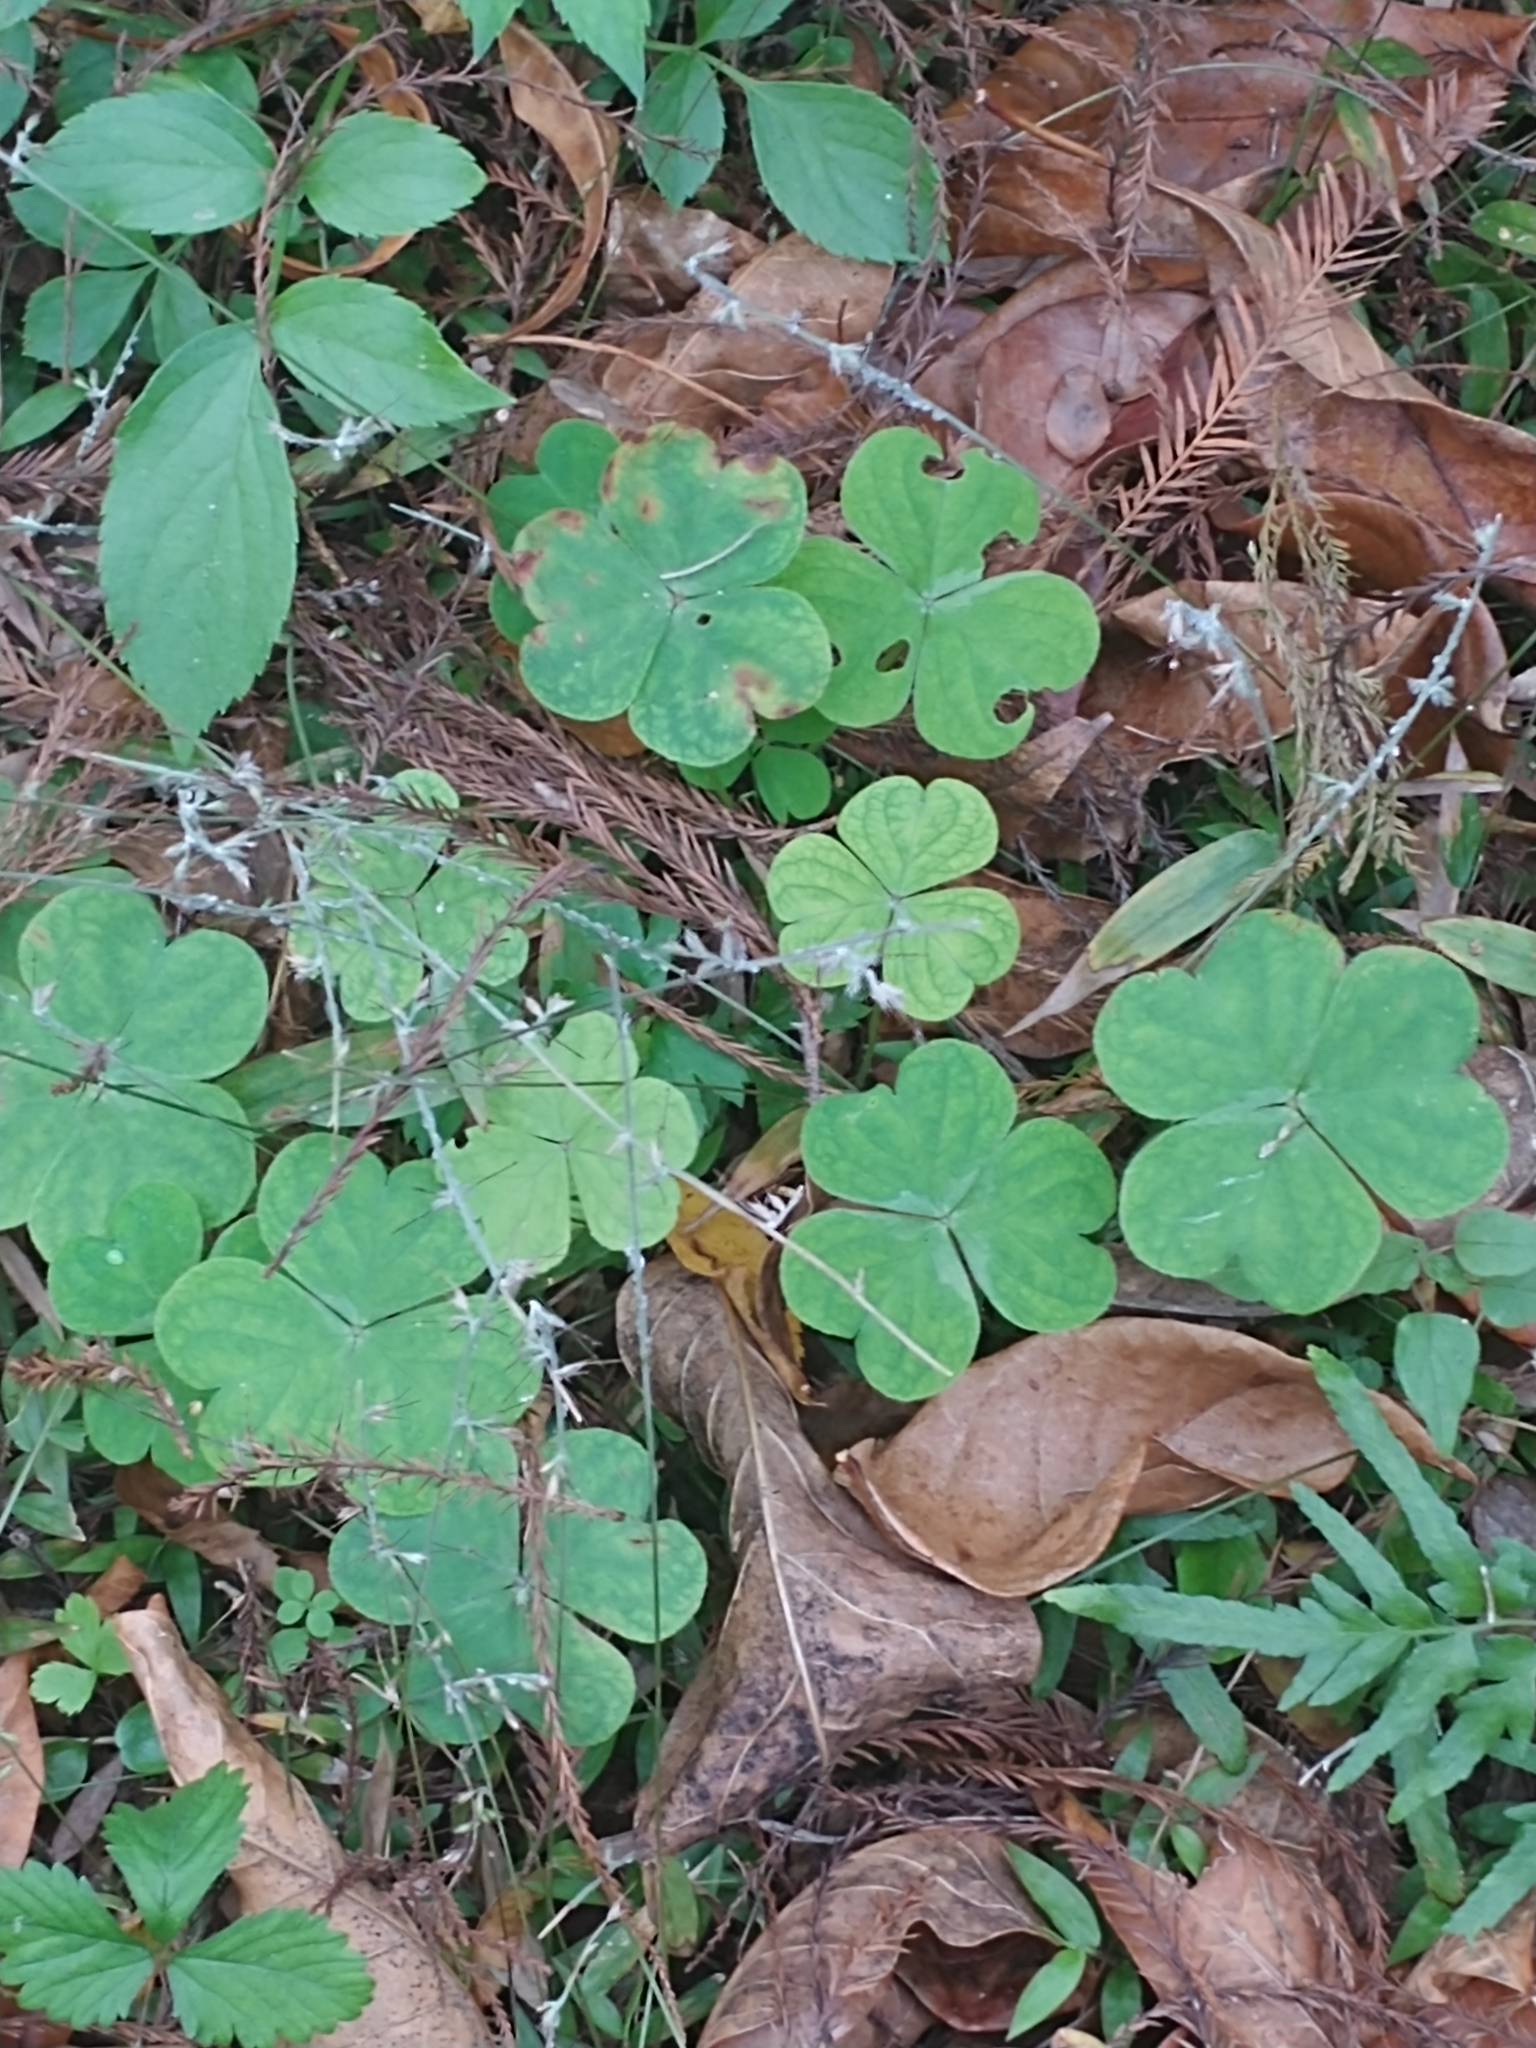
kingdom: Plantae
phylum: Tracheophyta
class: Magnoliopsida
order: Oxalidales
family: Oxalidaceae
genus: Oxalis
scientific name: Oxalis debilis
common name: Large-flowered pink-sorrel
